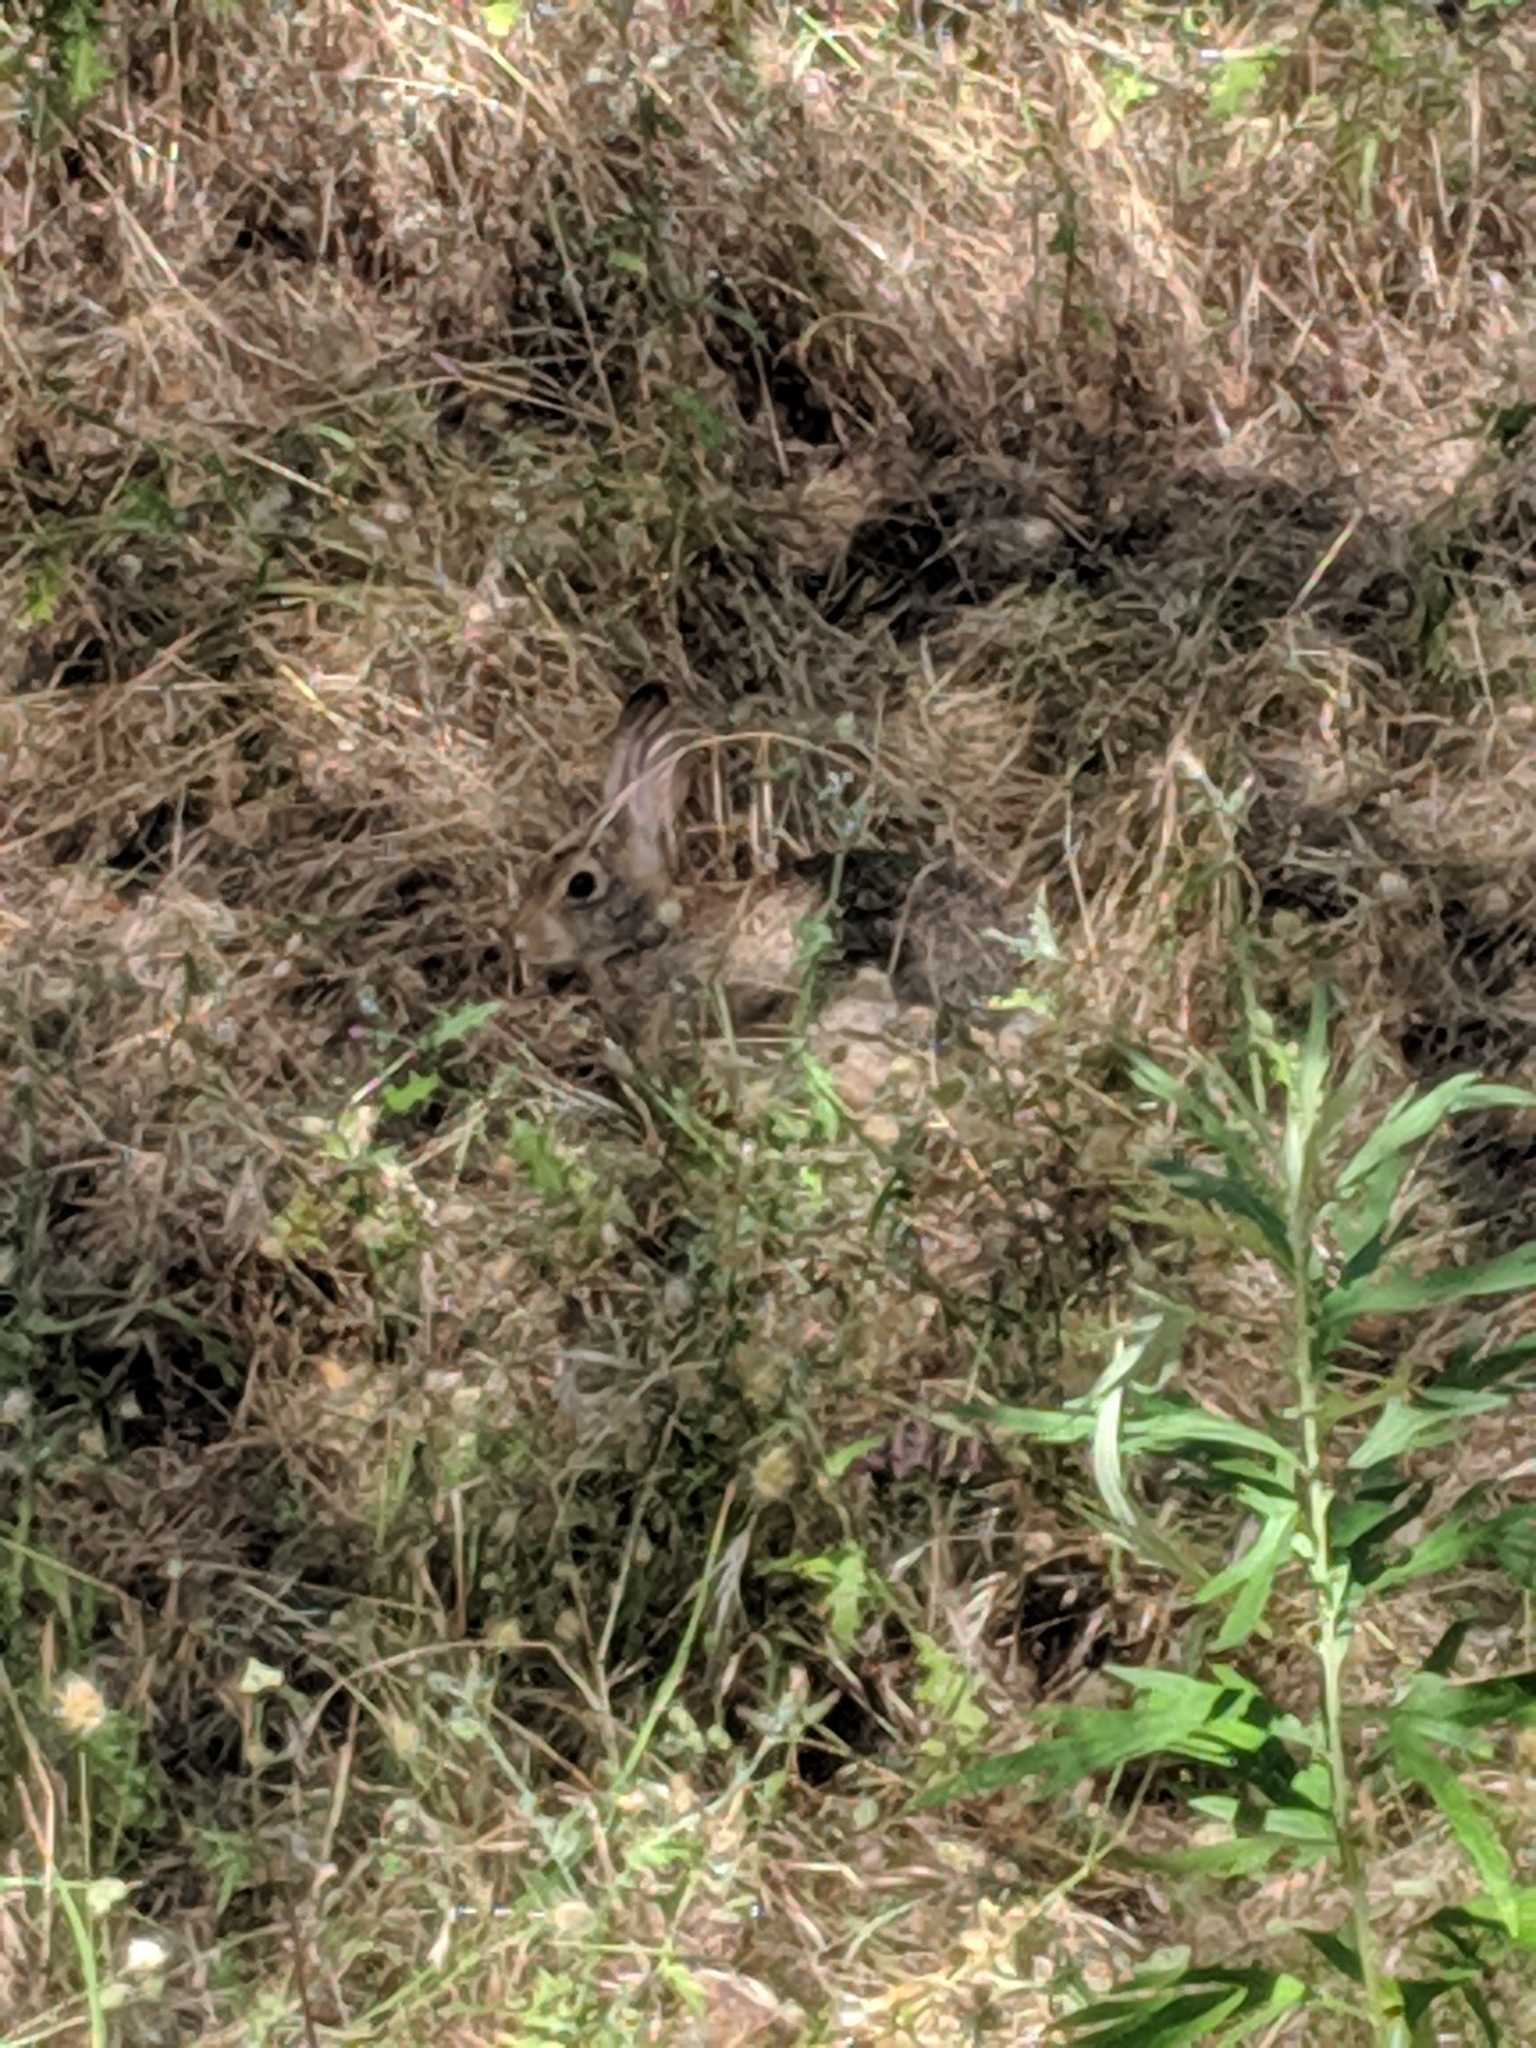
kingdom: Animalia
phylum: Chordata
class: Mammalia
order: Lagomorpha
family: Leporidae
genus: Sylvilagus
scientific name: Sylvilagus audubonii
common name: Desert cottontail
